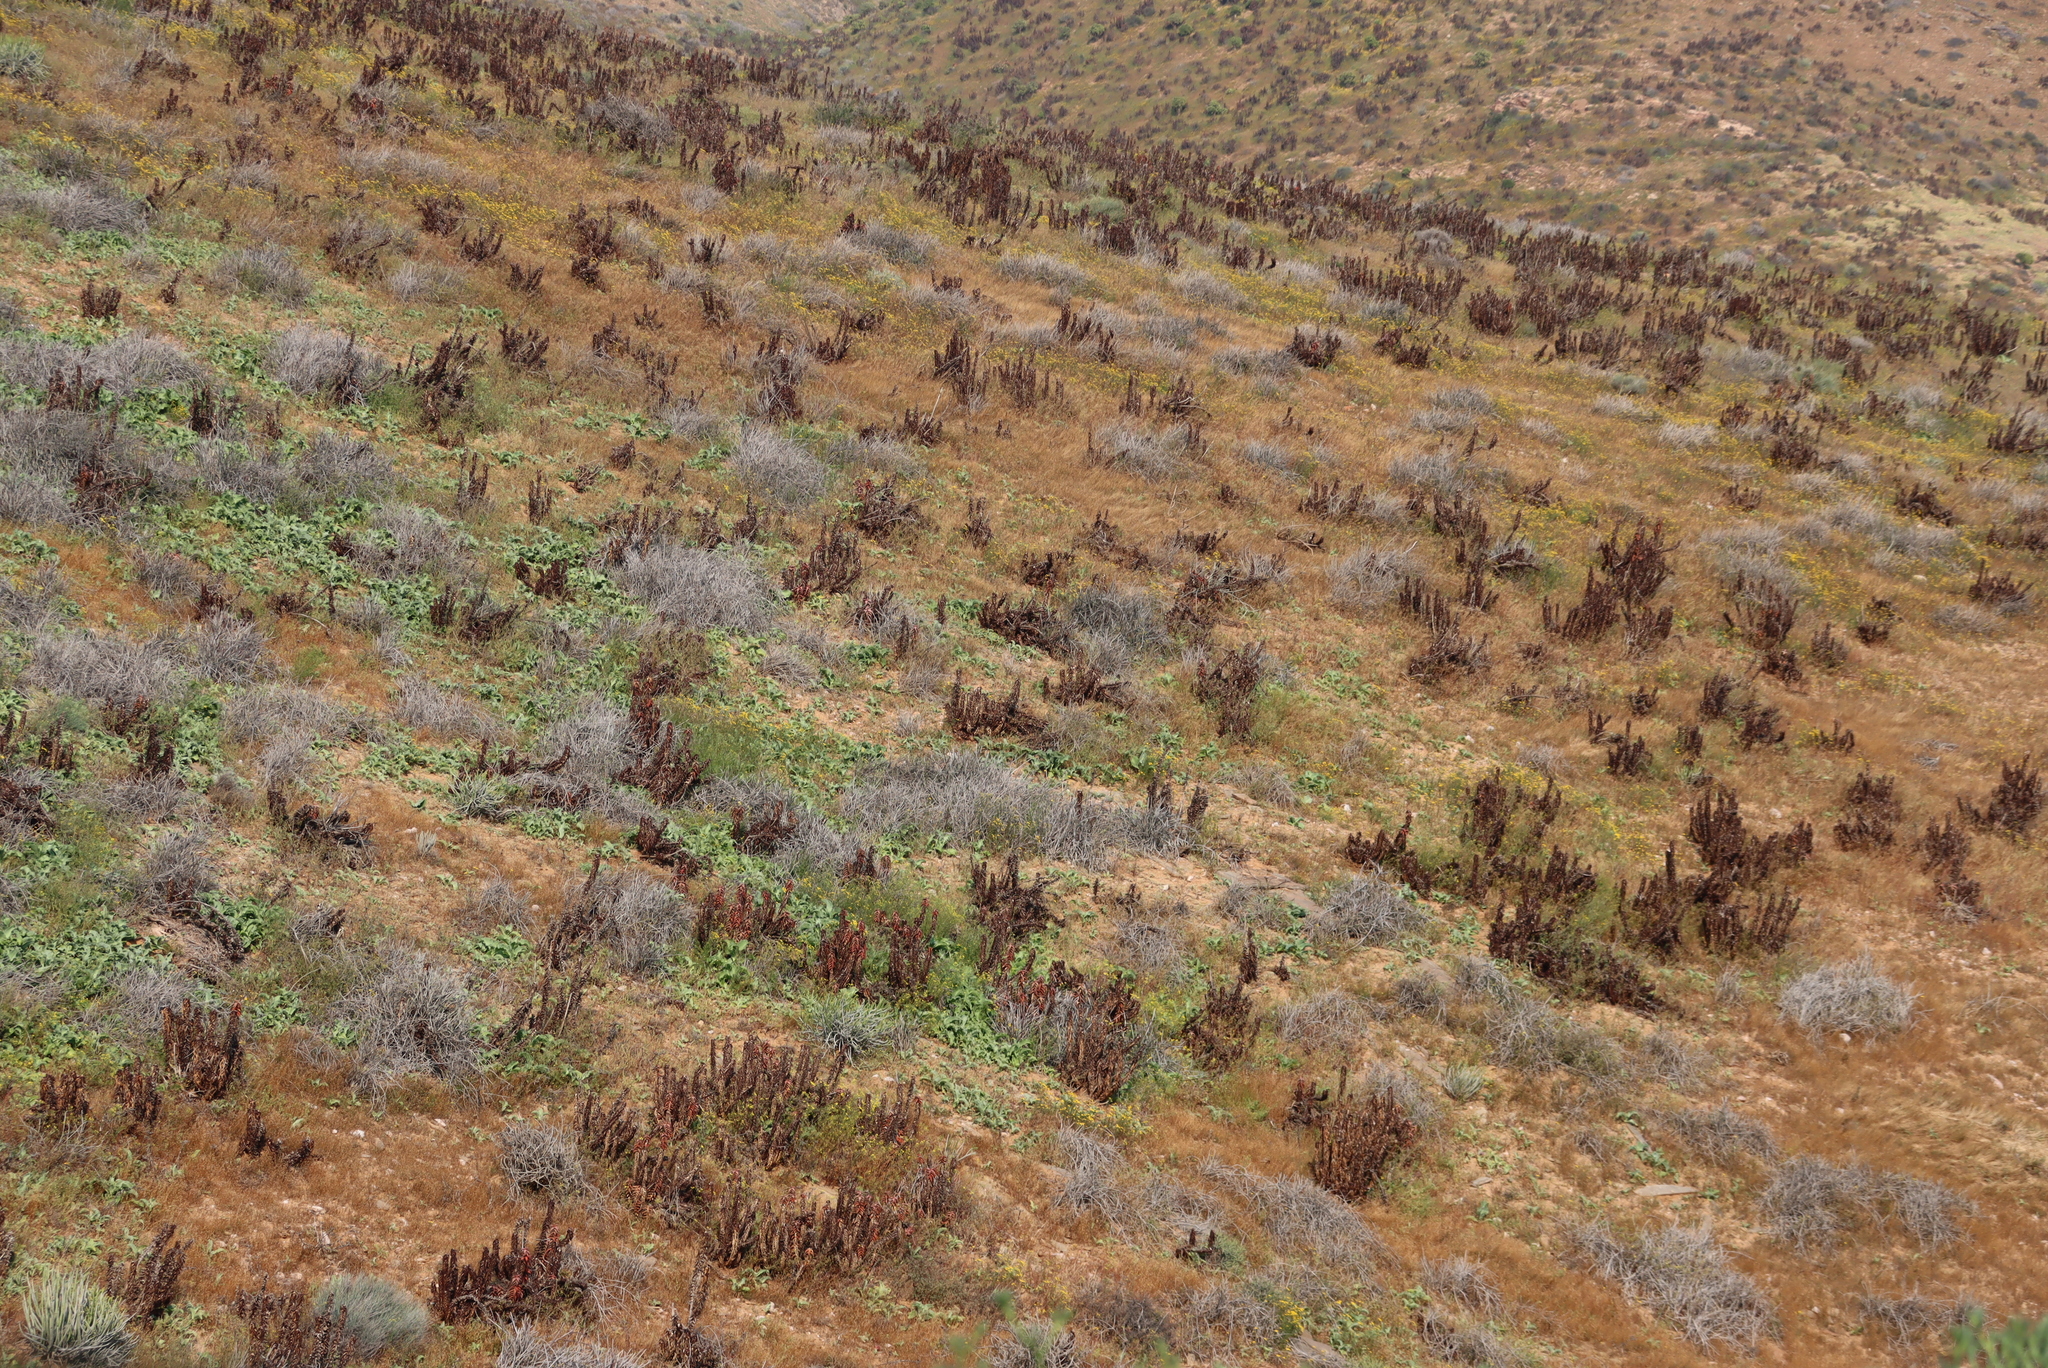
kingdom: Plantae
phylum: Tracheophyta
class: Liliopsida
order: Asparagales
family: Asphodelaceae
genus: Aloe
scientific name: Aloe pearsonii
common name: Pearson's aloe
